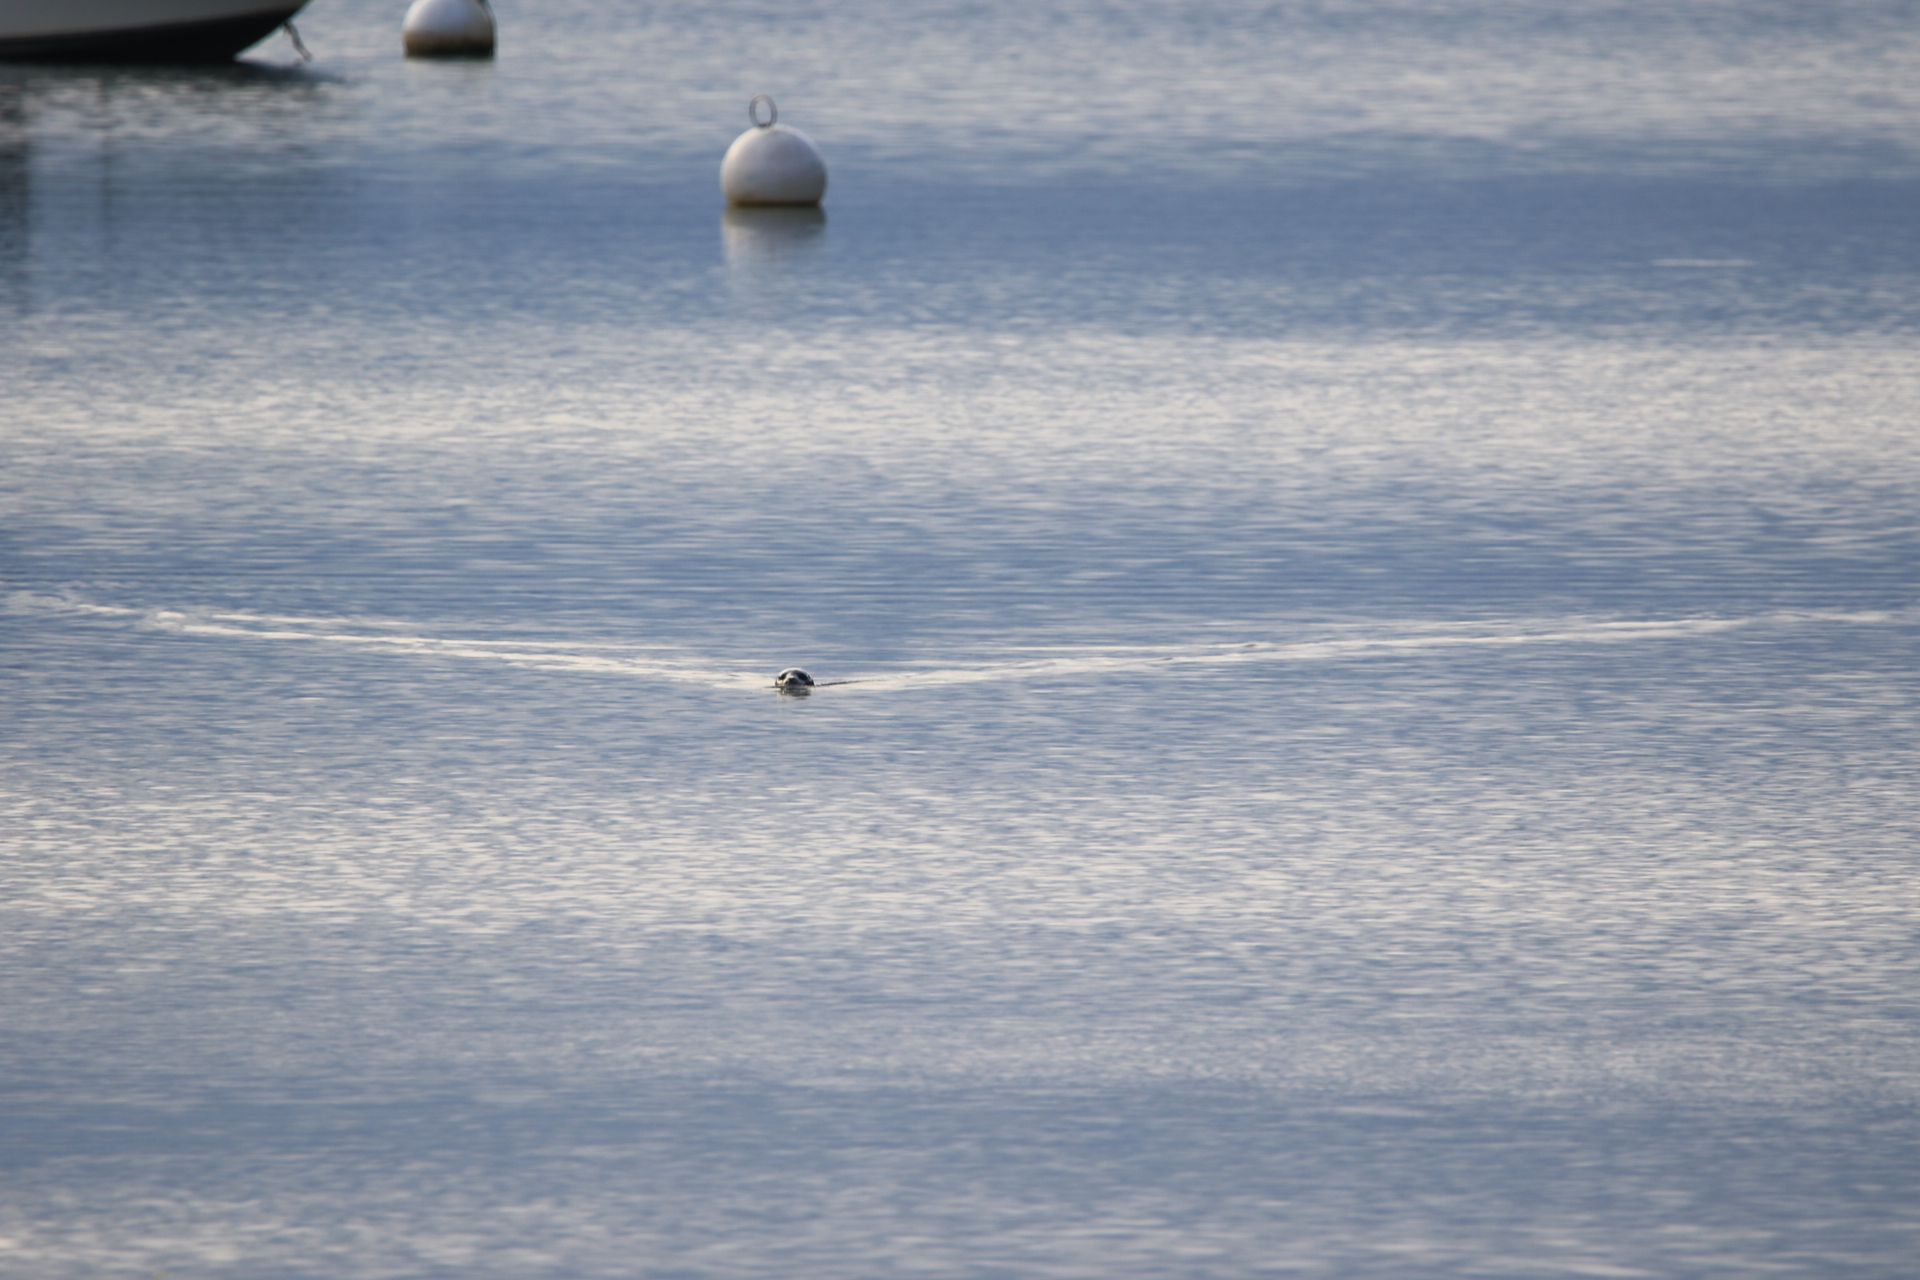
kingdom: Animalia
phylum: Chordata
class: Mammalia
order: Carnivora
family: Phocidae
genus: Phoca
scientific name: Phoca vitulina
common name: Harbor seal
